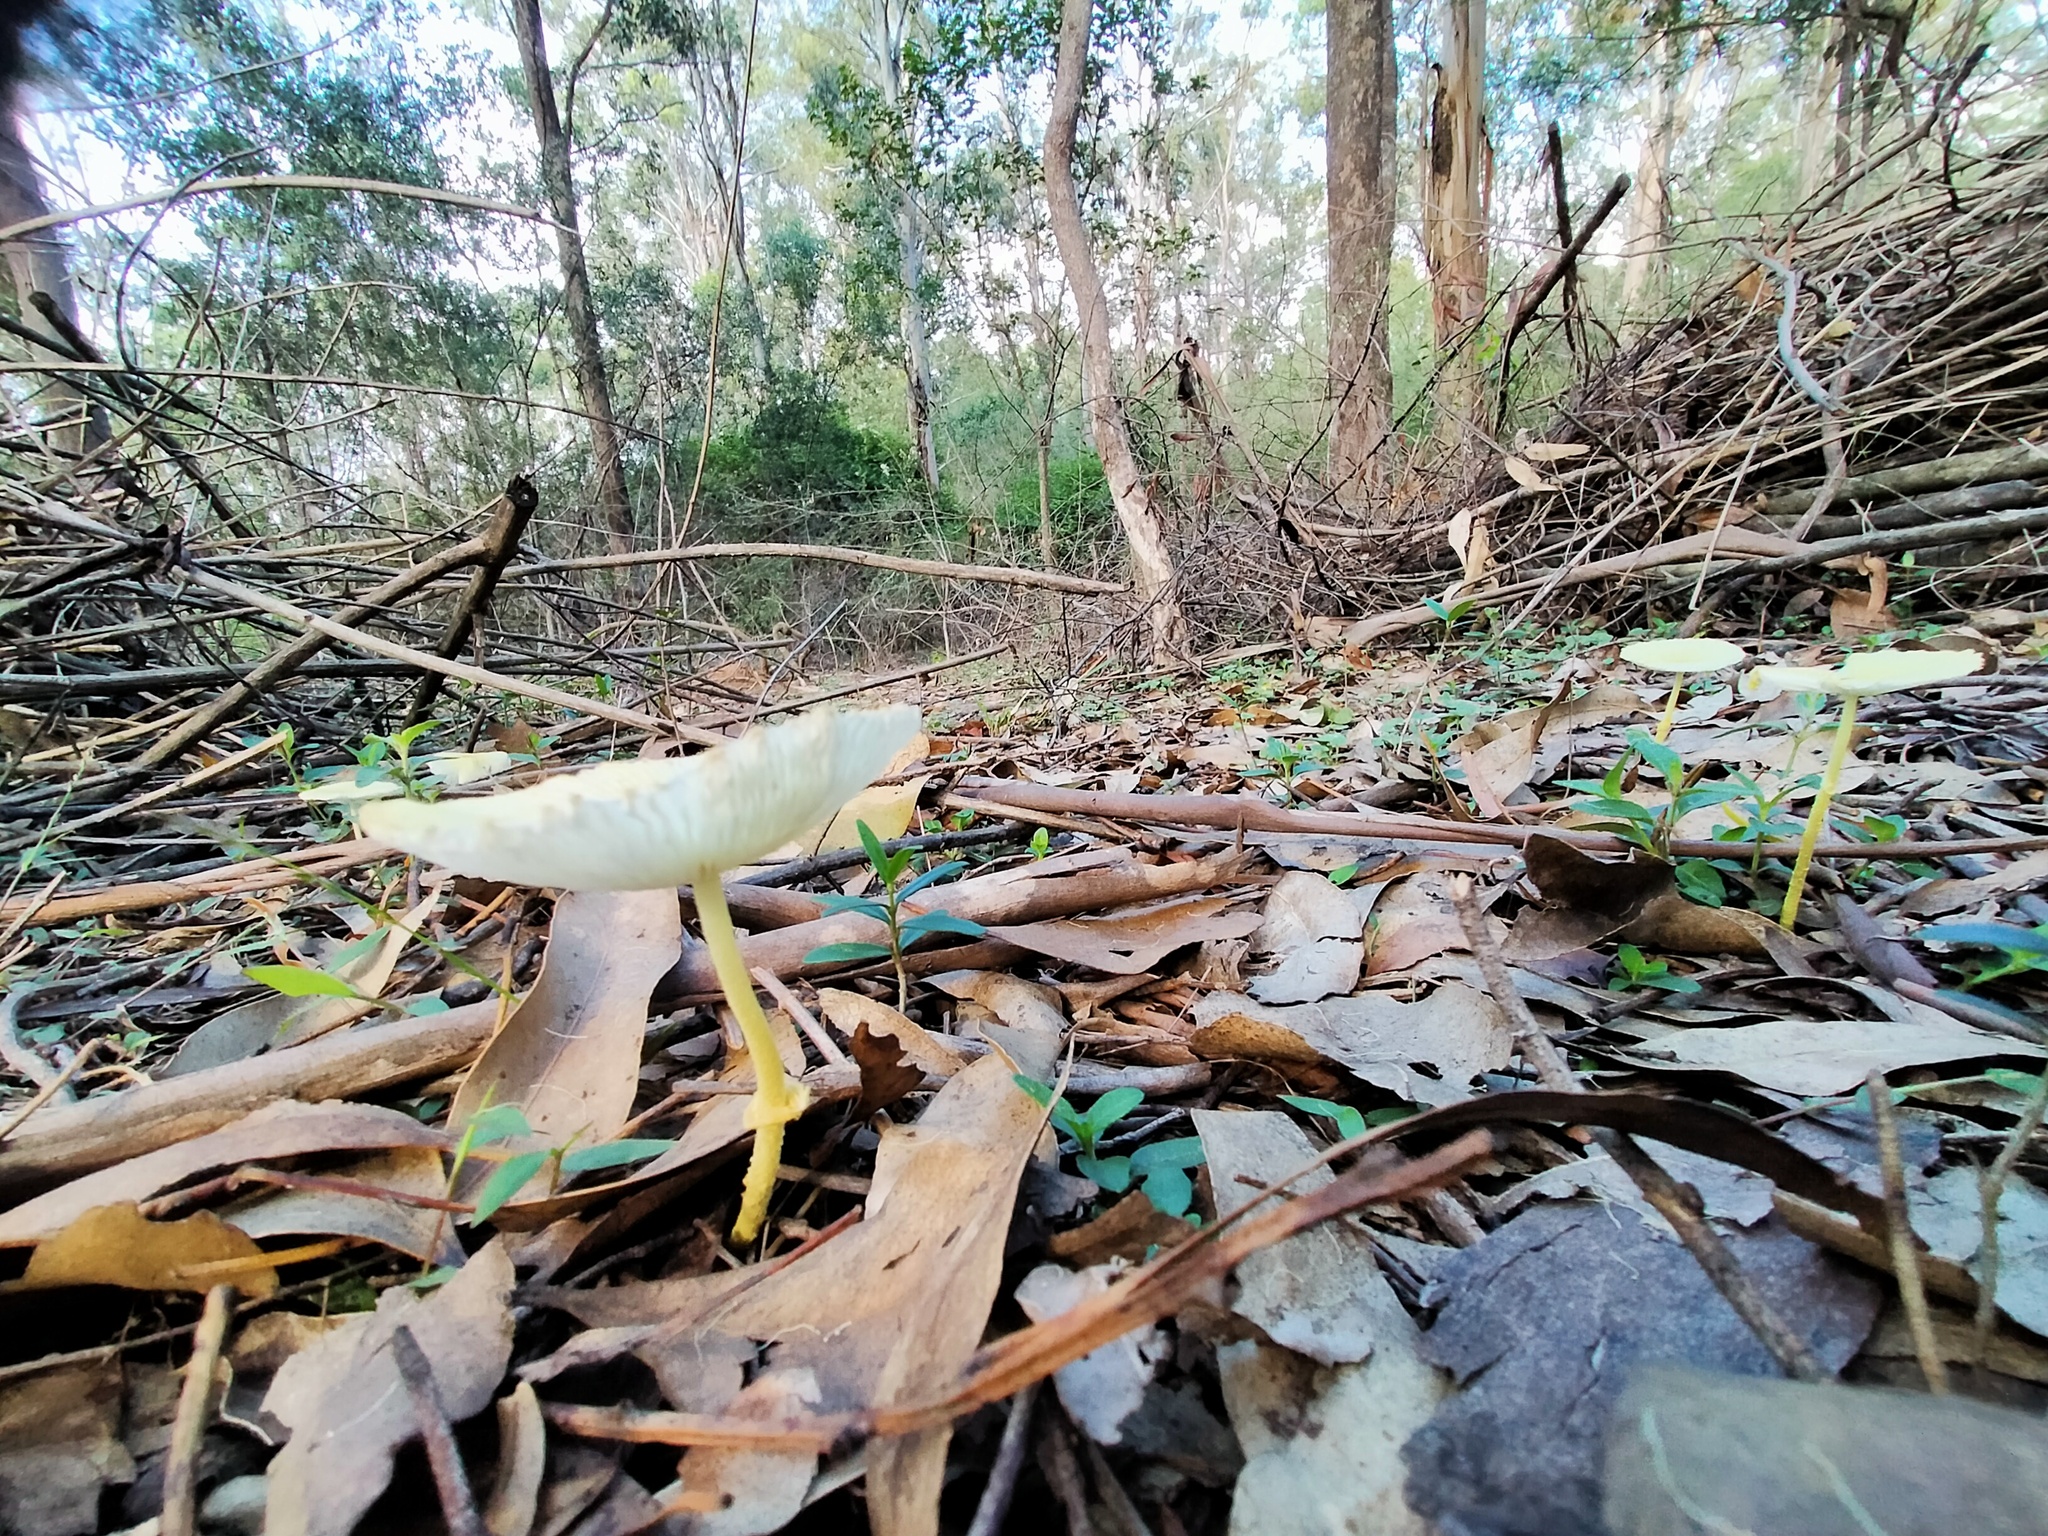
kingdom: Fungi
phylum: Basidiomycota
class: Agaricomycetes
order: Agaricales
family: Agaricaceae
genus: Leucocoprinus
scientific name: Leucocoprinus fragilissimus
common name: Fragile dapperling
